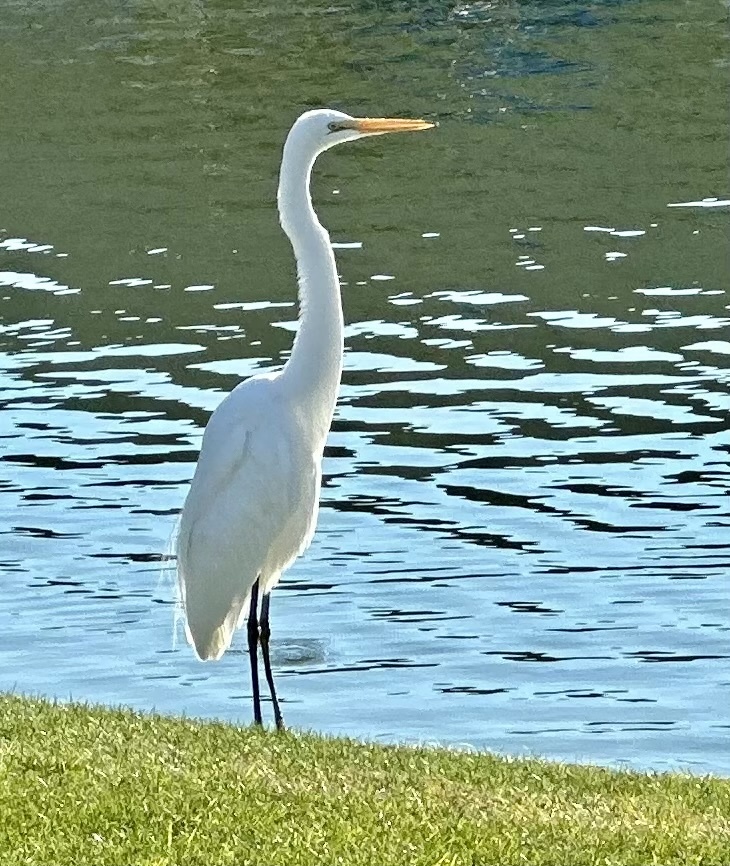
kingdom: Animalia
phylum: Chordata
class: Aves
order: Pelecaniformes
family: Ardeidae
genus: Ardea
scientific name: Ardea alba
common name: Great egret
